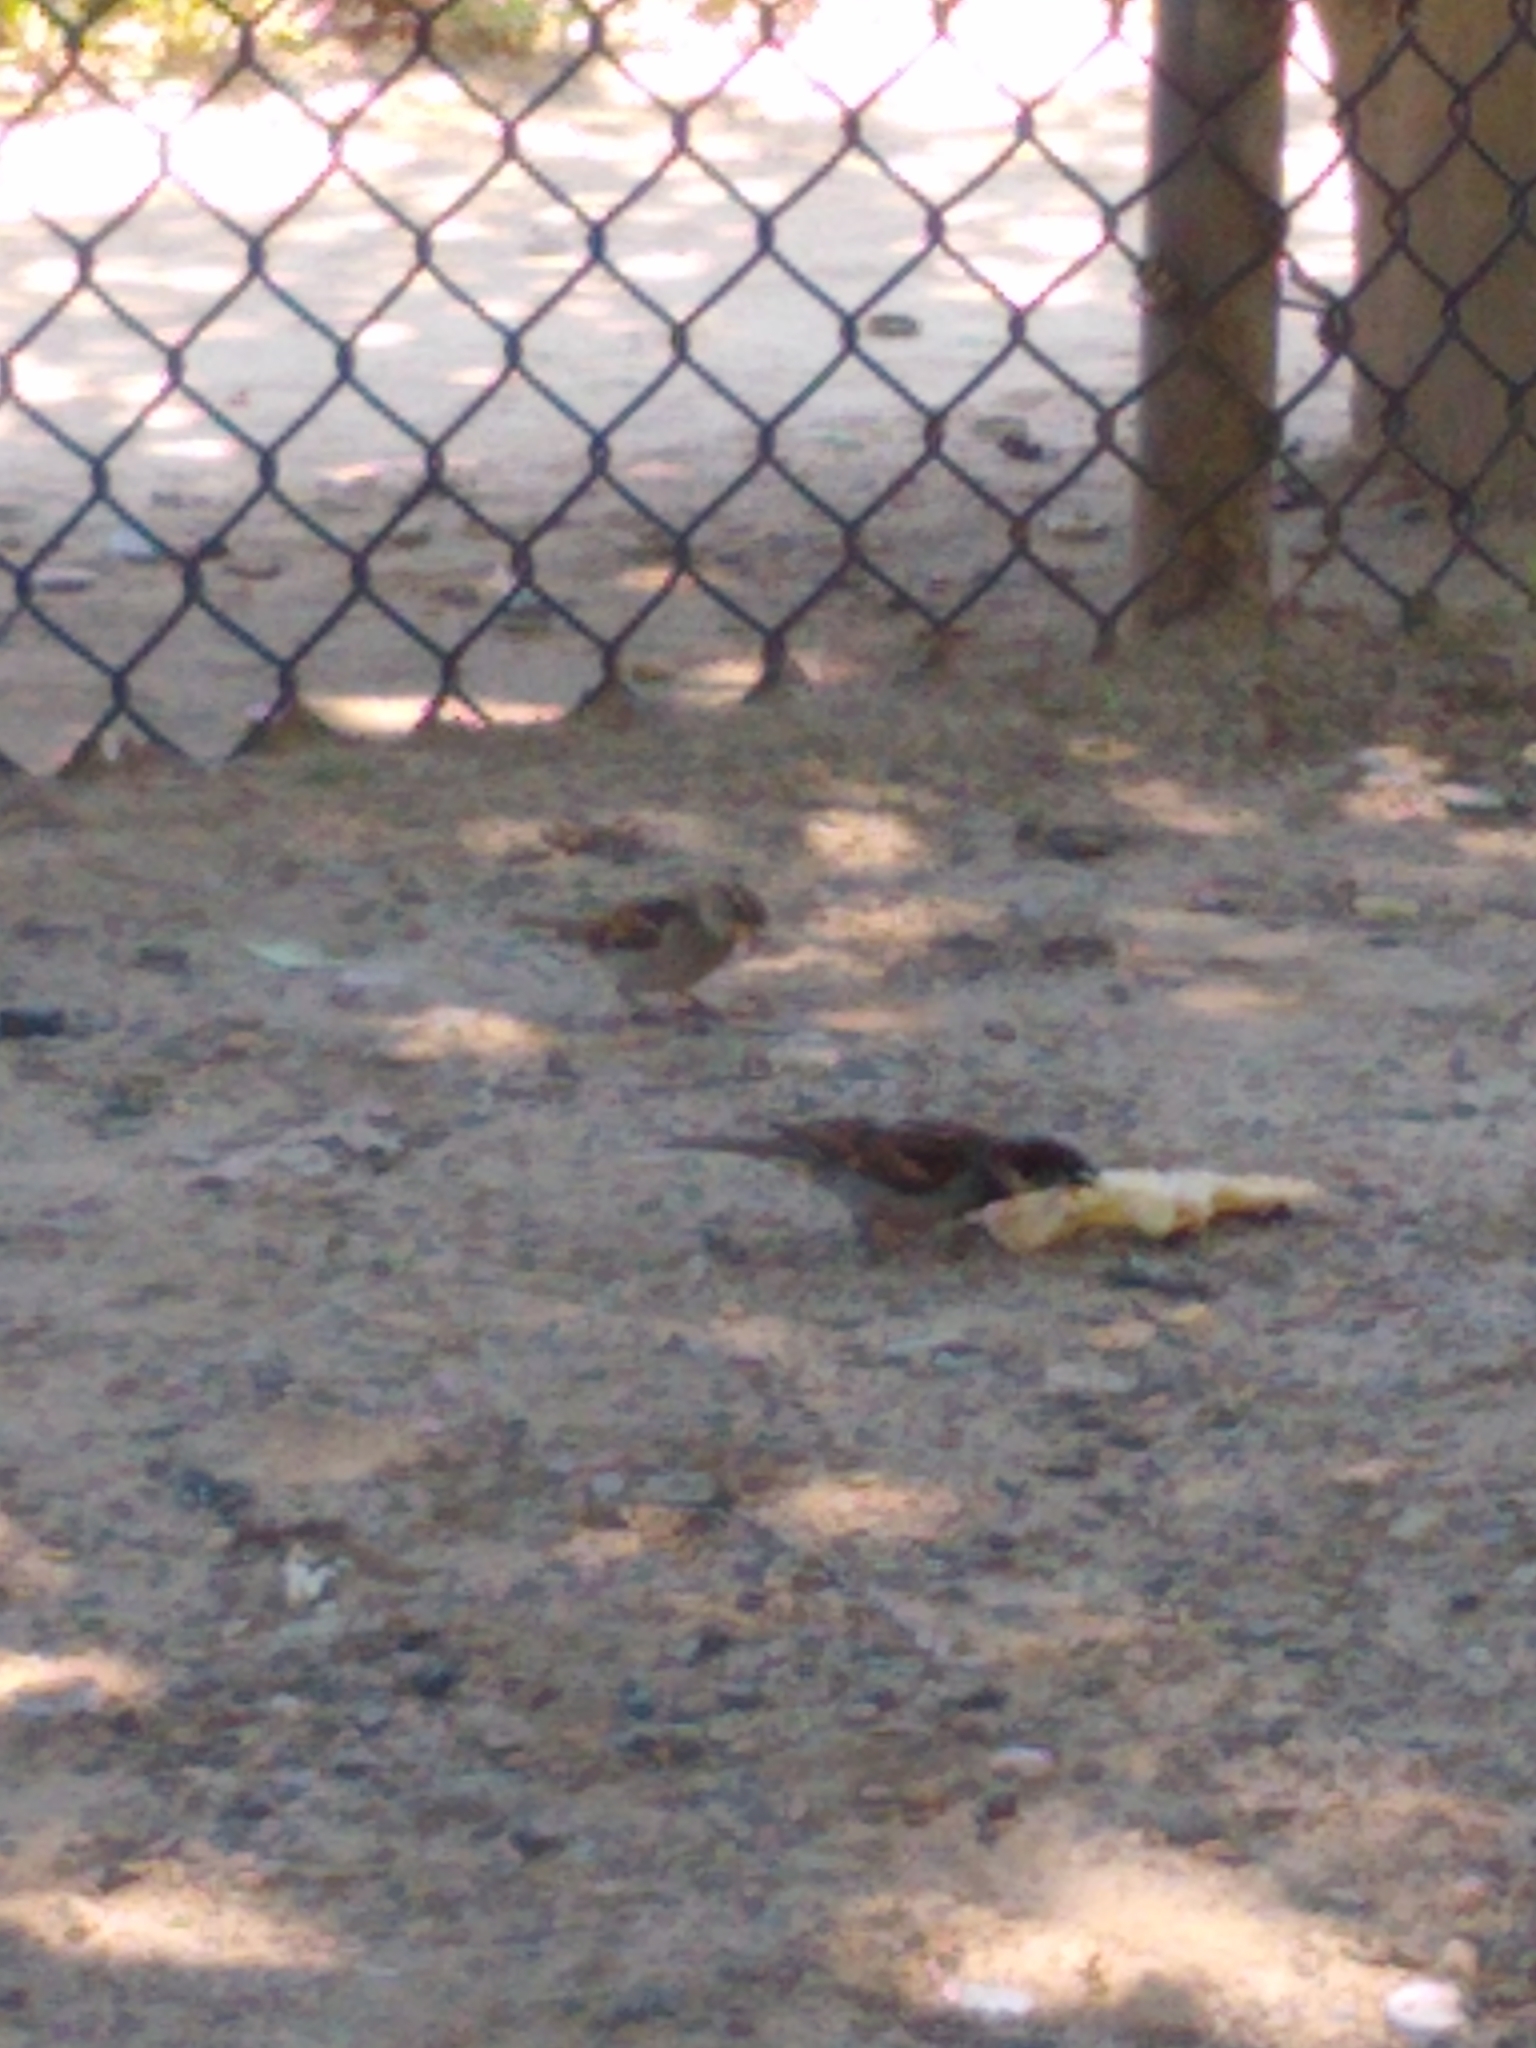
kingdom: Animalia
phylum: Chordata
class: Aves
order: Passeriformes
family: Passeridae
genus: Passer
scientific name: Passer domesticus
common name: House sparrow
